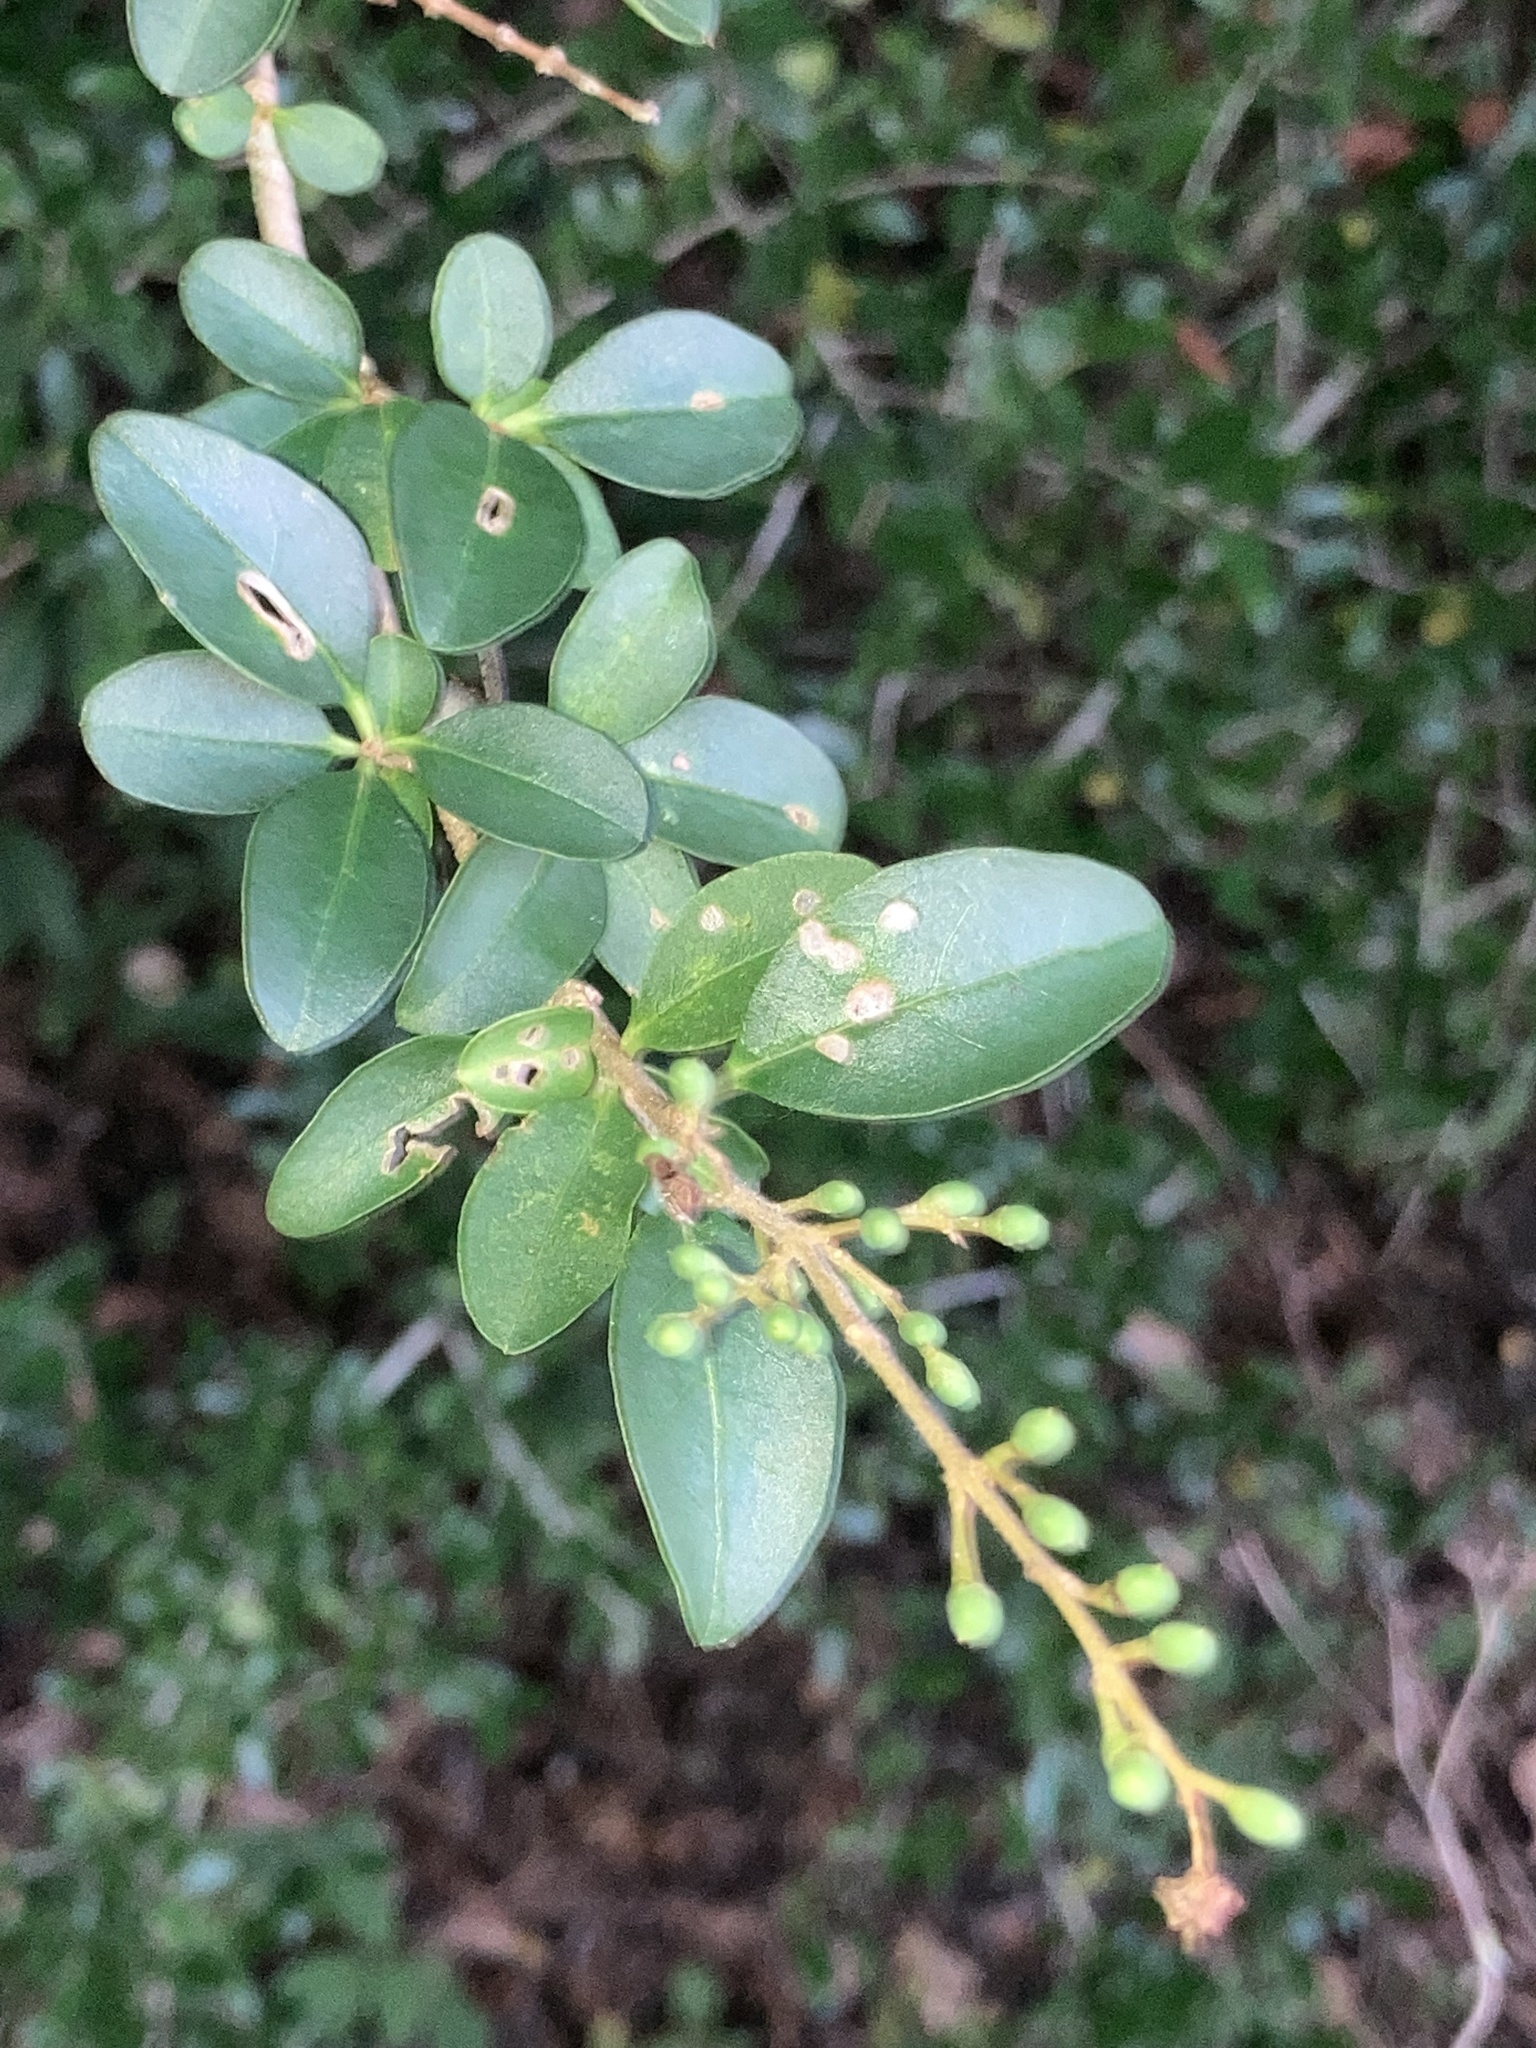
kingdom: Plantae
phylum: Tracheophyta
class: Magnoliopsida
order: Lamiales
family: Oleaceae
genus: Ligustrum
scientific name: Ligustrum sinense
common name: Chinese privet
